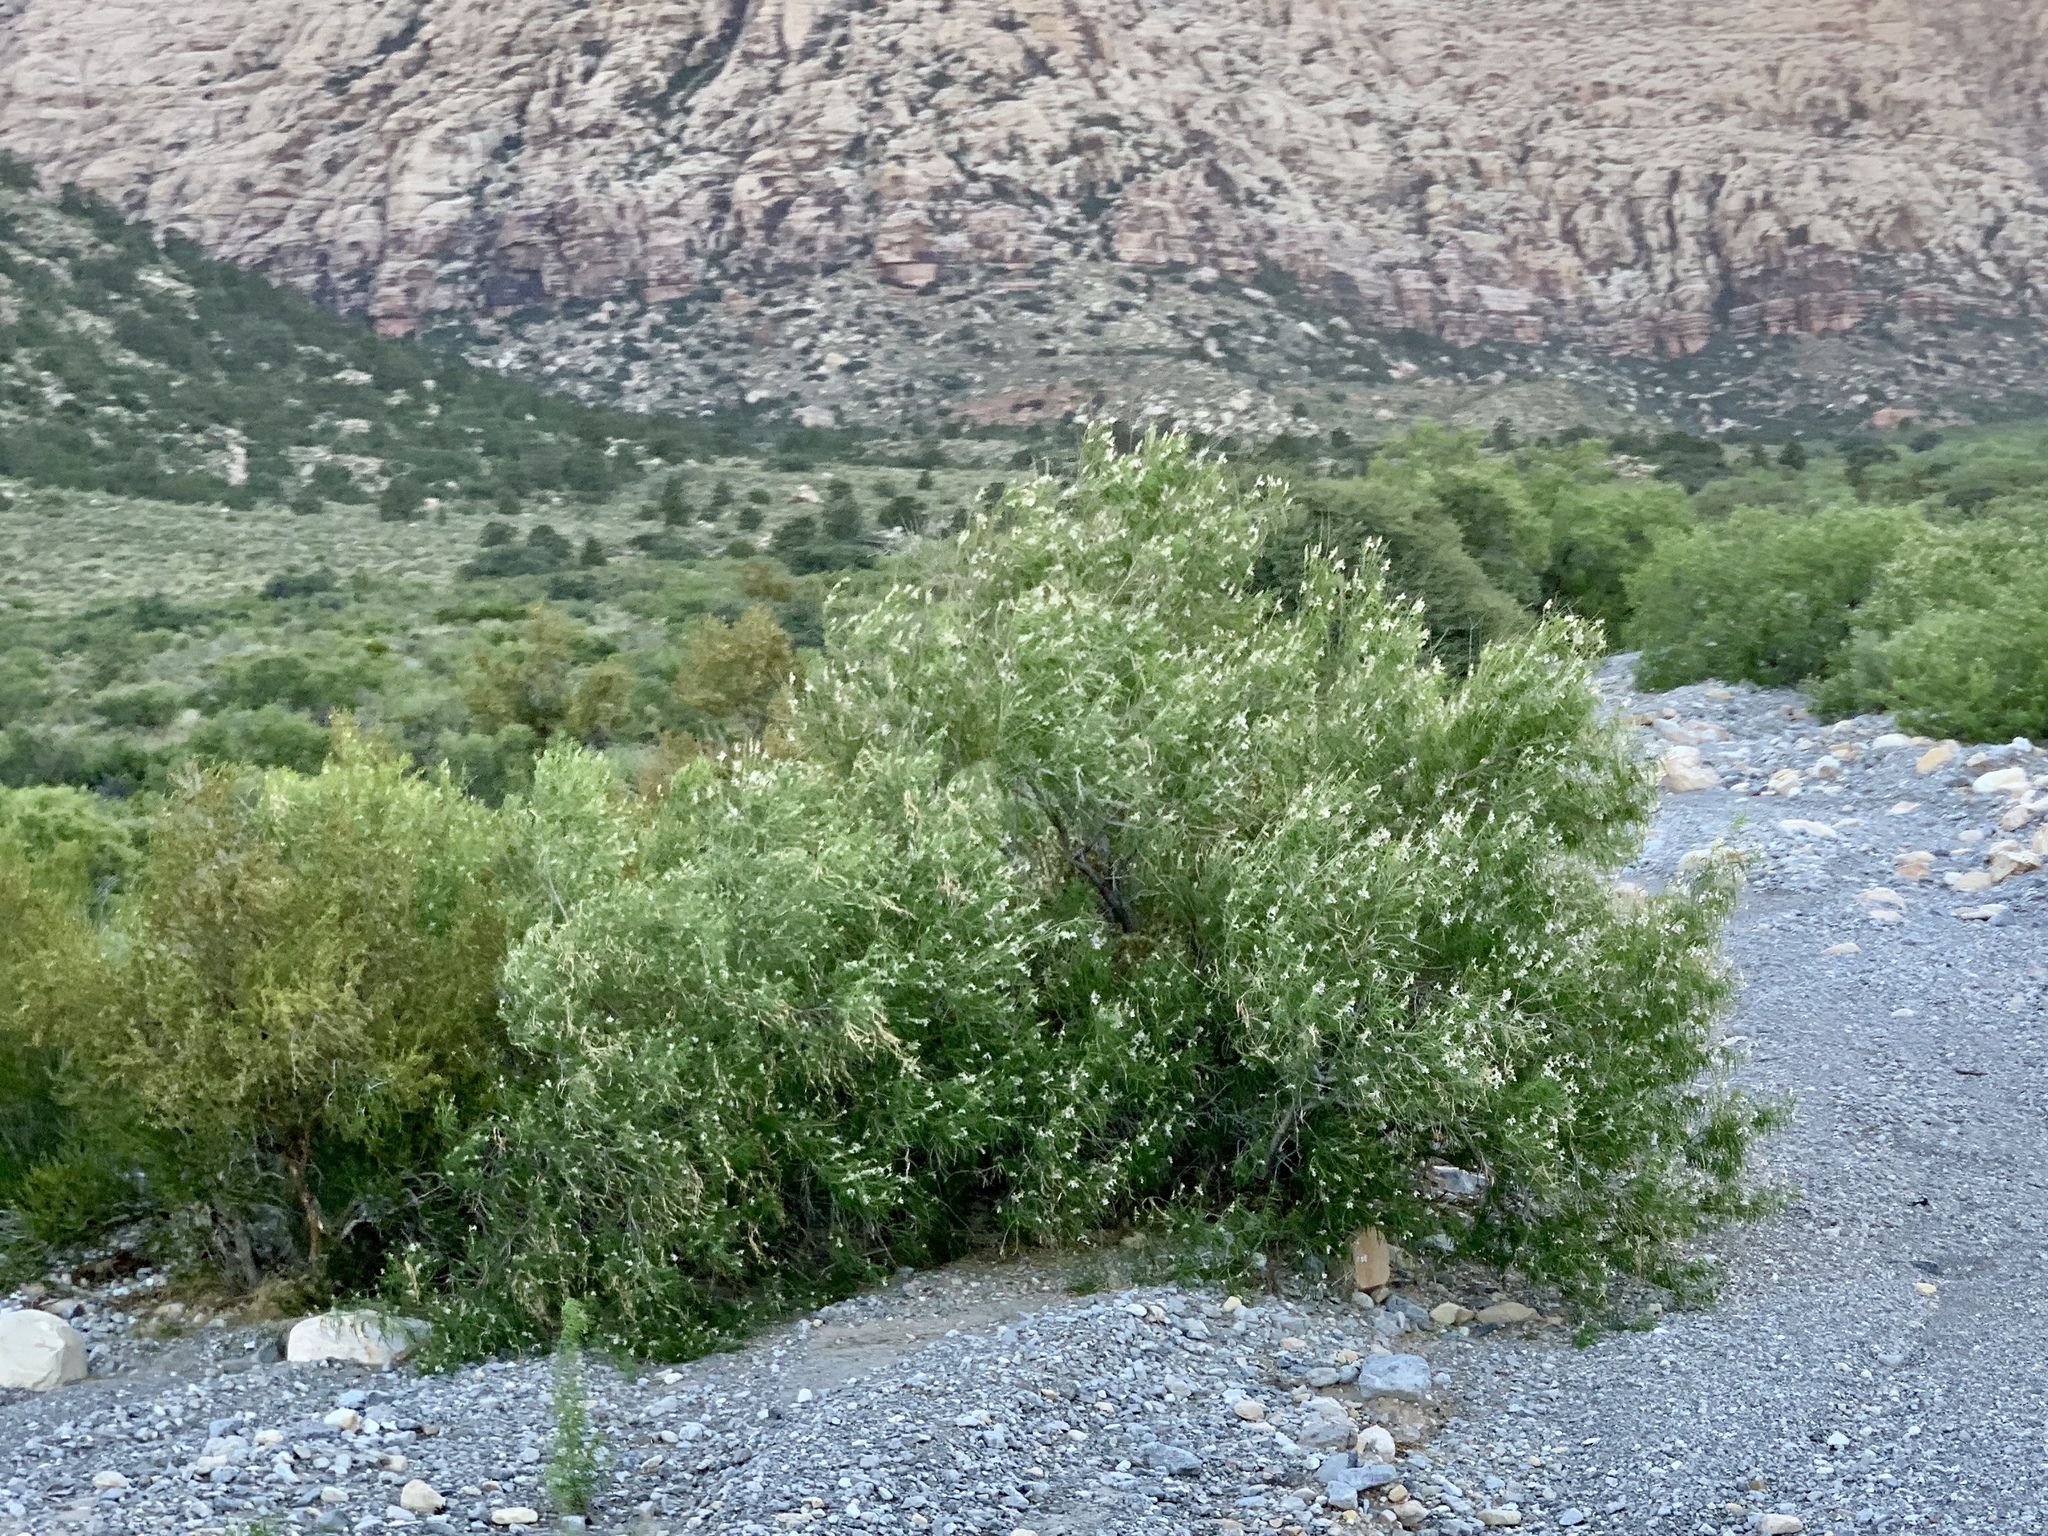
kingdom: Plantae
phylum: Tracheophyta
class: Magnoliopsida
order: Lamiales
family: Bignoniaceae
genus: Chilopsis
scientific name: Chilopsis linearis
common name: Desert-willow
